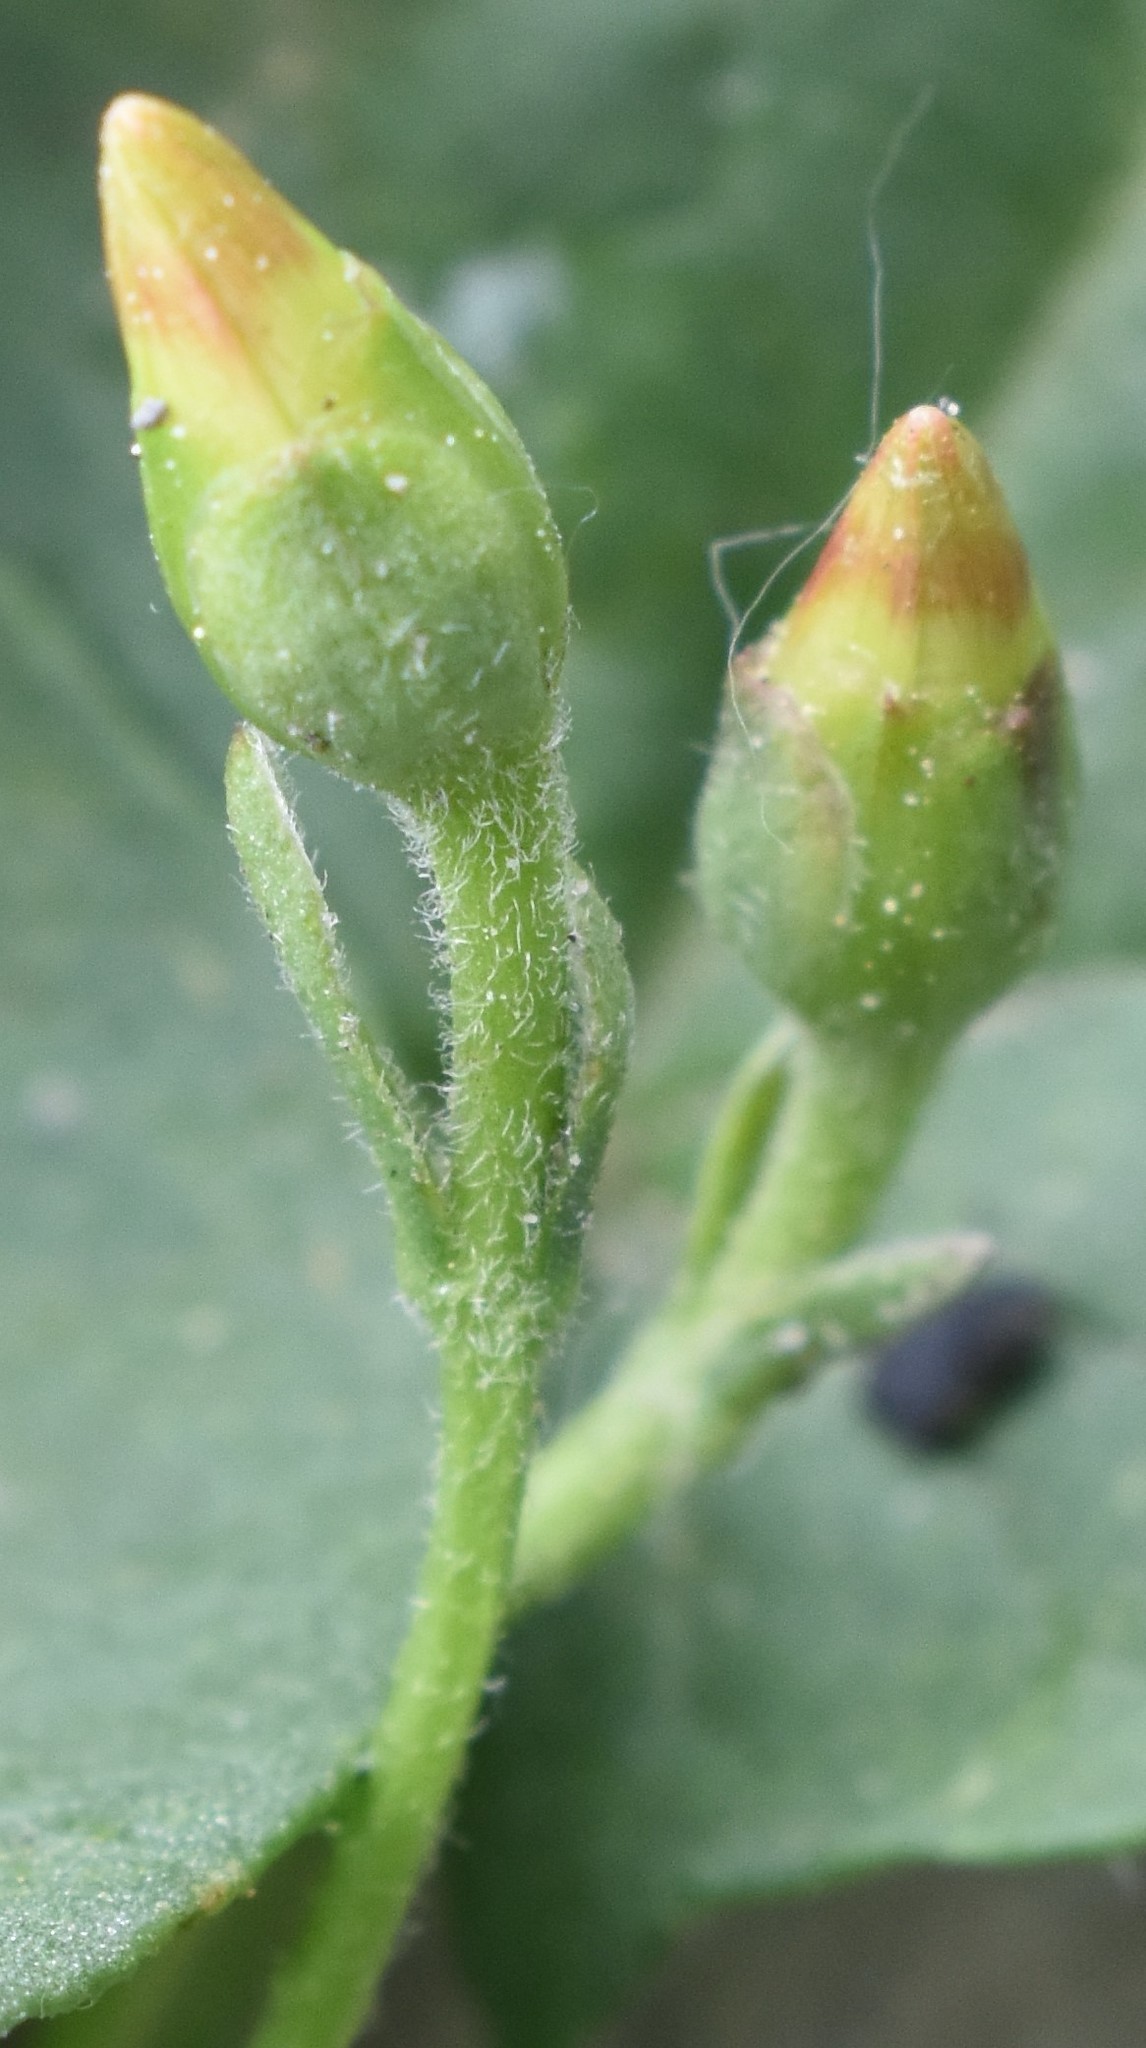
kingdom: Plantae
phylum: Tracheophyta
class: Magnoliopsida
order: Solanales
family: Convolvulaceae
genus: Convolvulus
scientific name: Convolvulus arvensis
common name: Field bindweed
